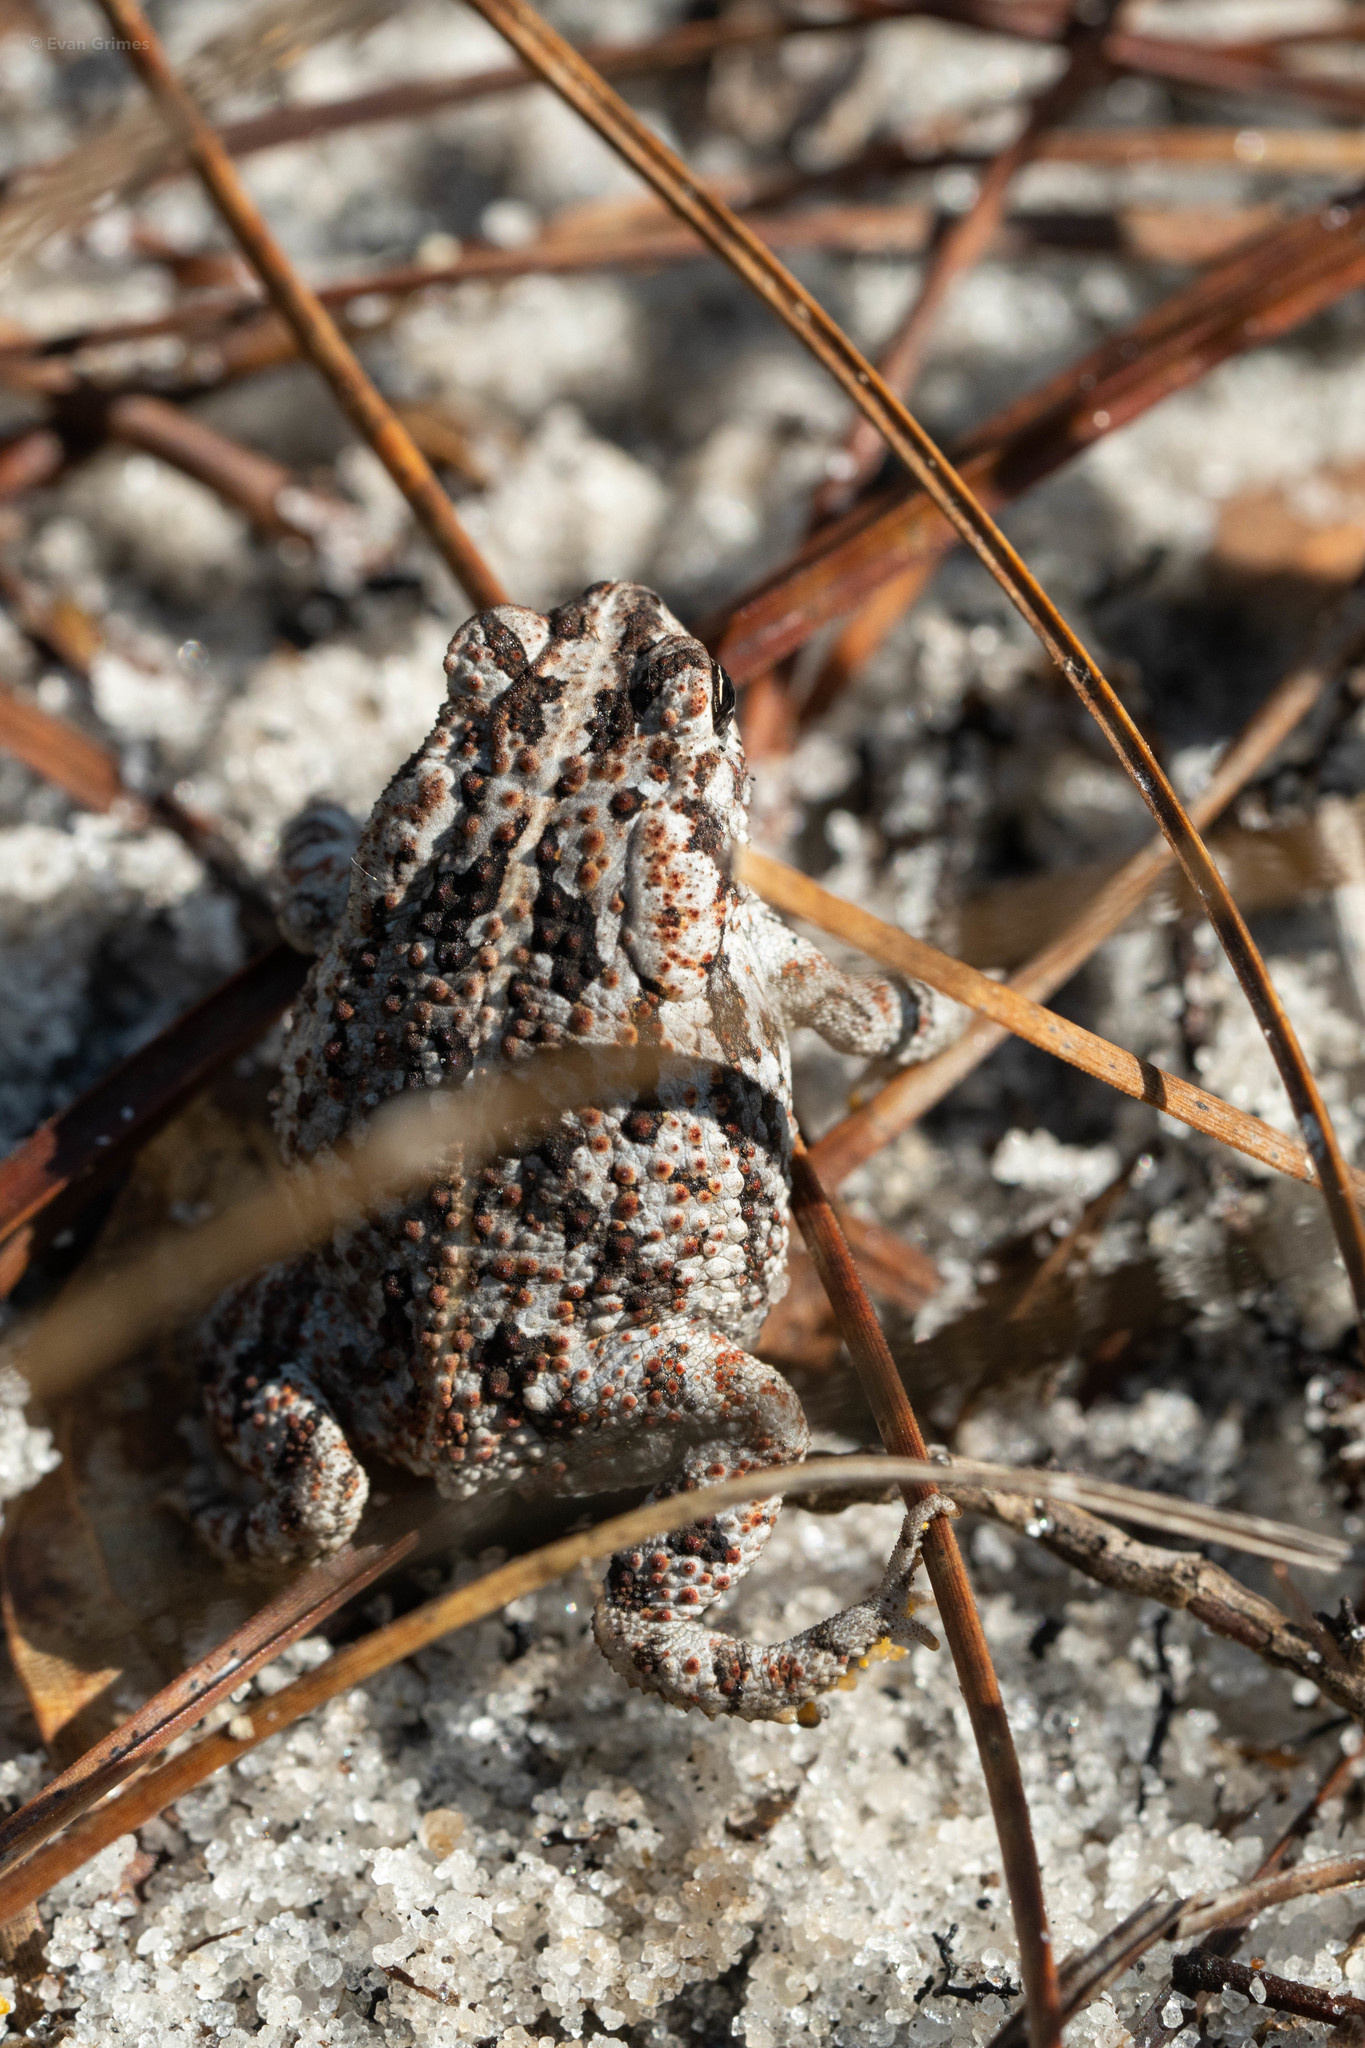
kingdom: Animalia
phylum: Chordata
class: Amphibia
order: Anura
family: Bufonidae
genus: Anaxyrus
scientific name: Anaxyrus quercicus
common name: Oak toad
